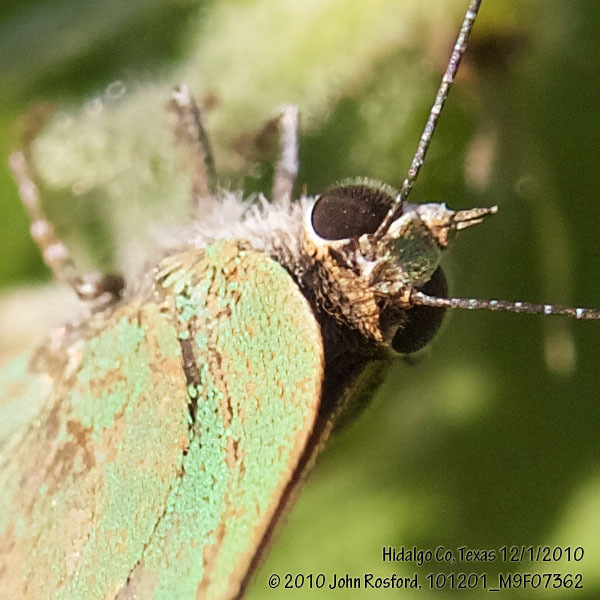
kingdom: Animalia
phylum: Arthropoda
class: Insecta
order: Lepidoptera
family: Lycaenidae
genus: Thecla
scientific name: Thecla herodotus
